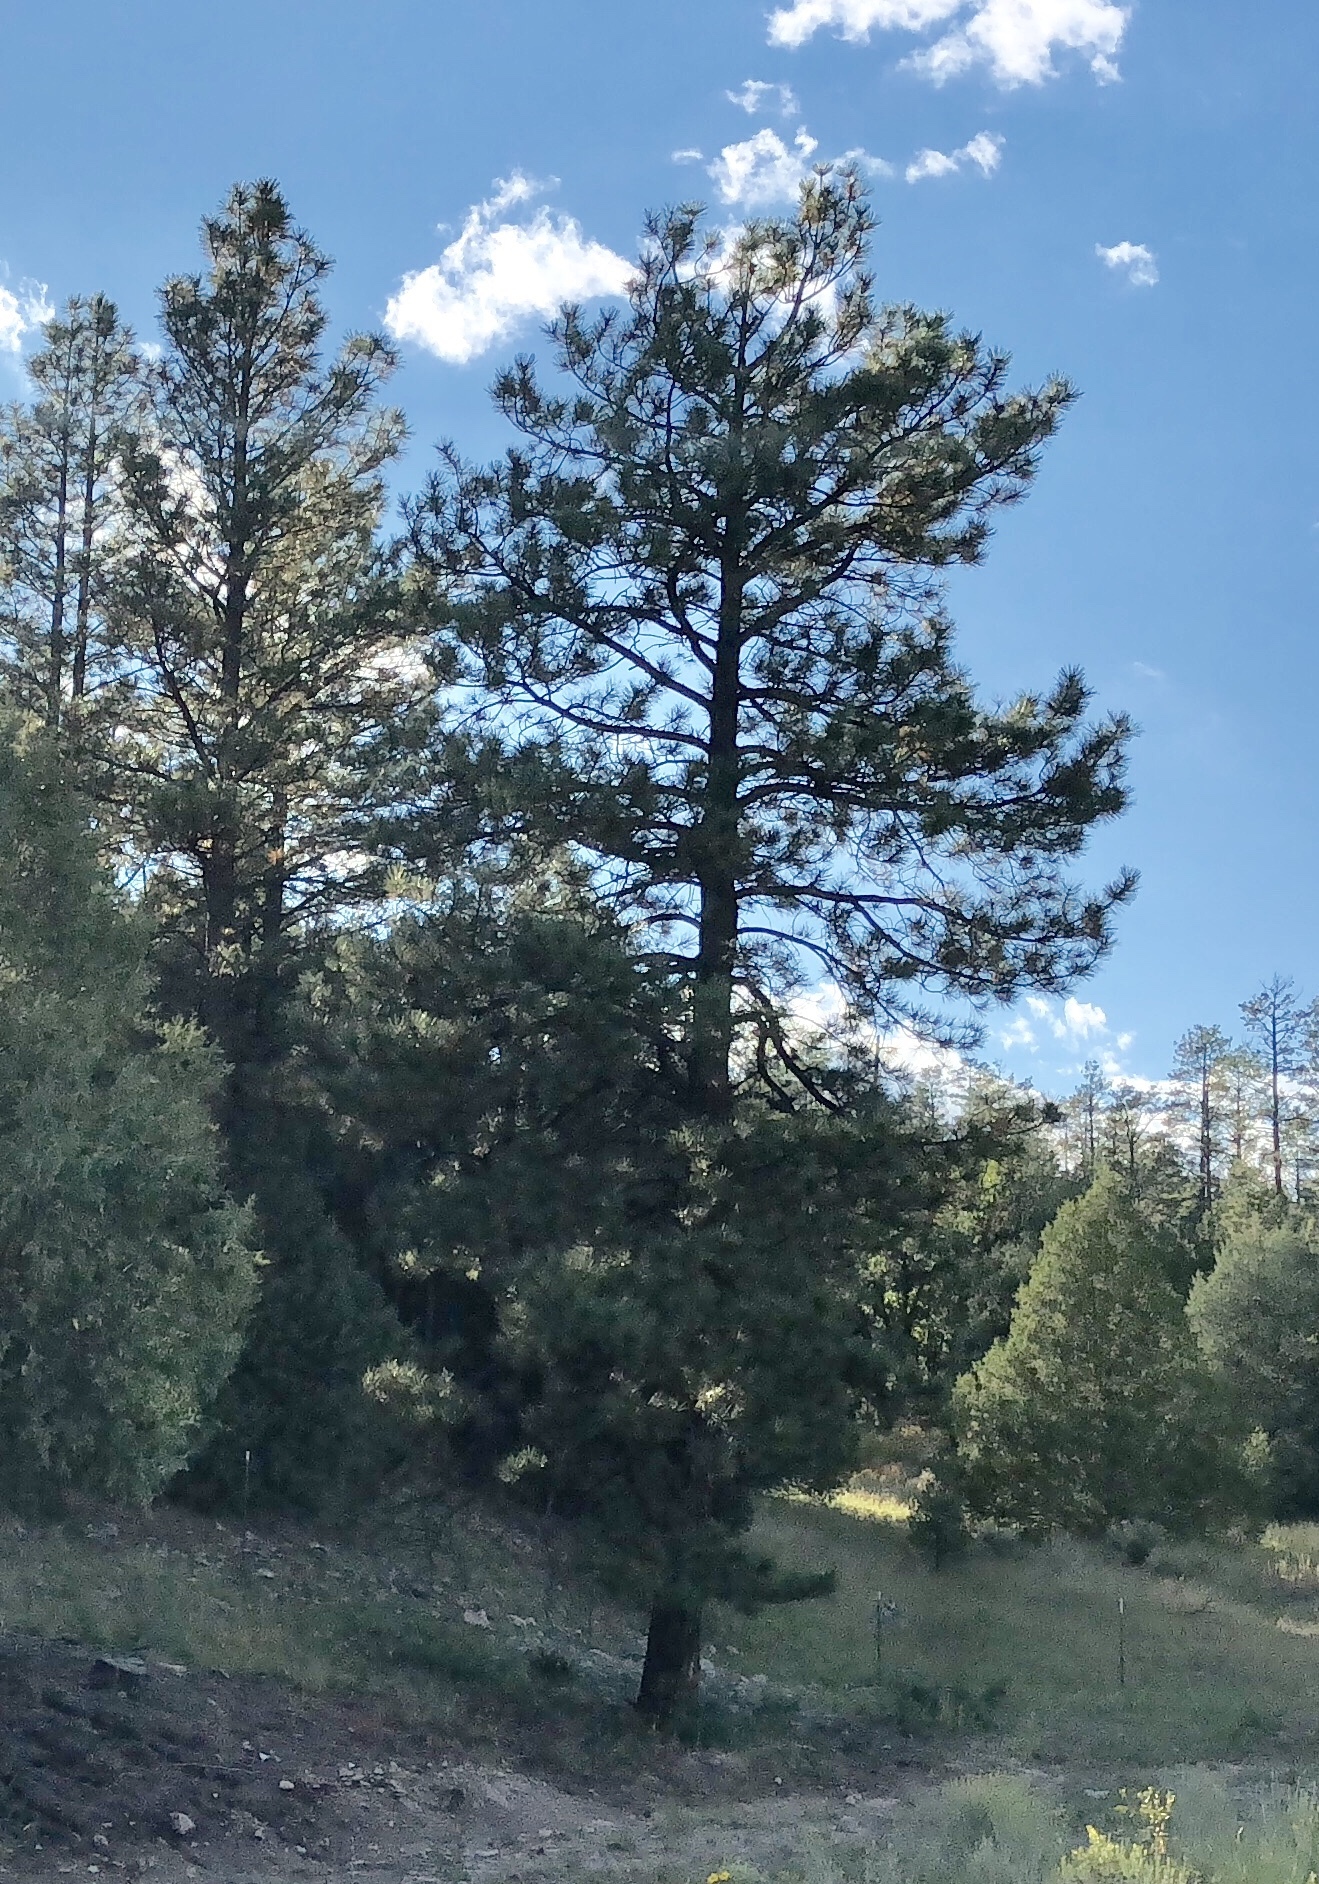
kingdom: Plantae
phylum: Tracheophyta
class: Pinopsida
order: Pinales
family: Pinaceae
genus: Pinus
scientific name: Pinus ponderosa
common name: Western yellow-pine
